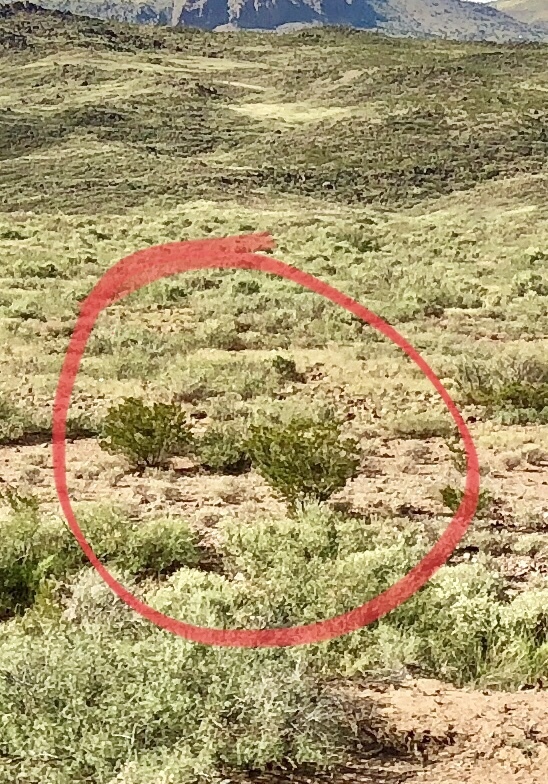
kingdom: Plantae
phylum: Tracheophyta
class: Magnoliopsida
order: Zygophyllales
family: Zygophyllaceae
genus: Larrea
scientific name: Larrea tridentata
